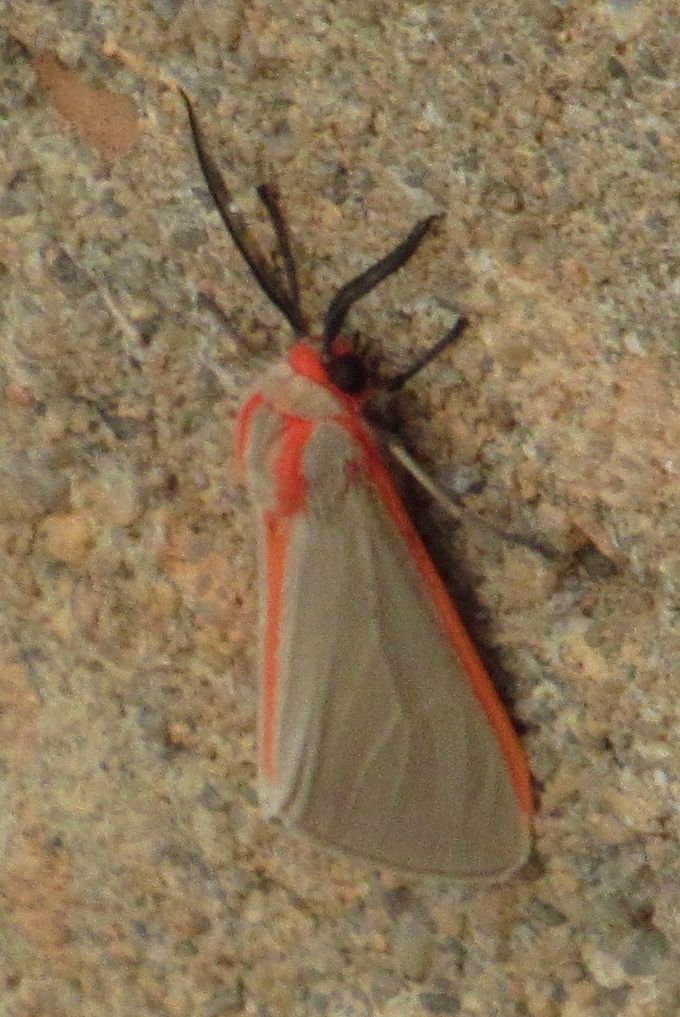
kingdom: Animalia
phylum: Arthropoda
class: Insecta
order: Lepidoptera
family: Erebidae
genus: Pygarctia
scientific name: Pygarctia spraguei
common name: Sprague's pygarctica
